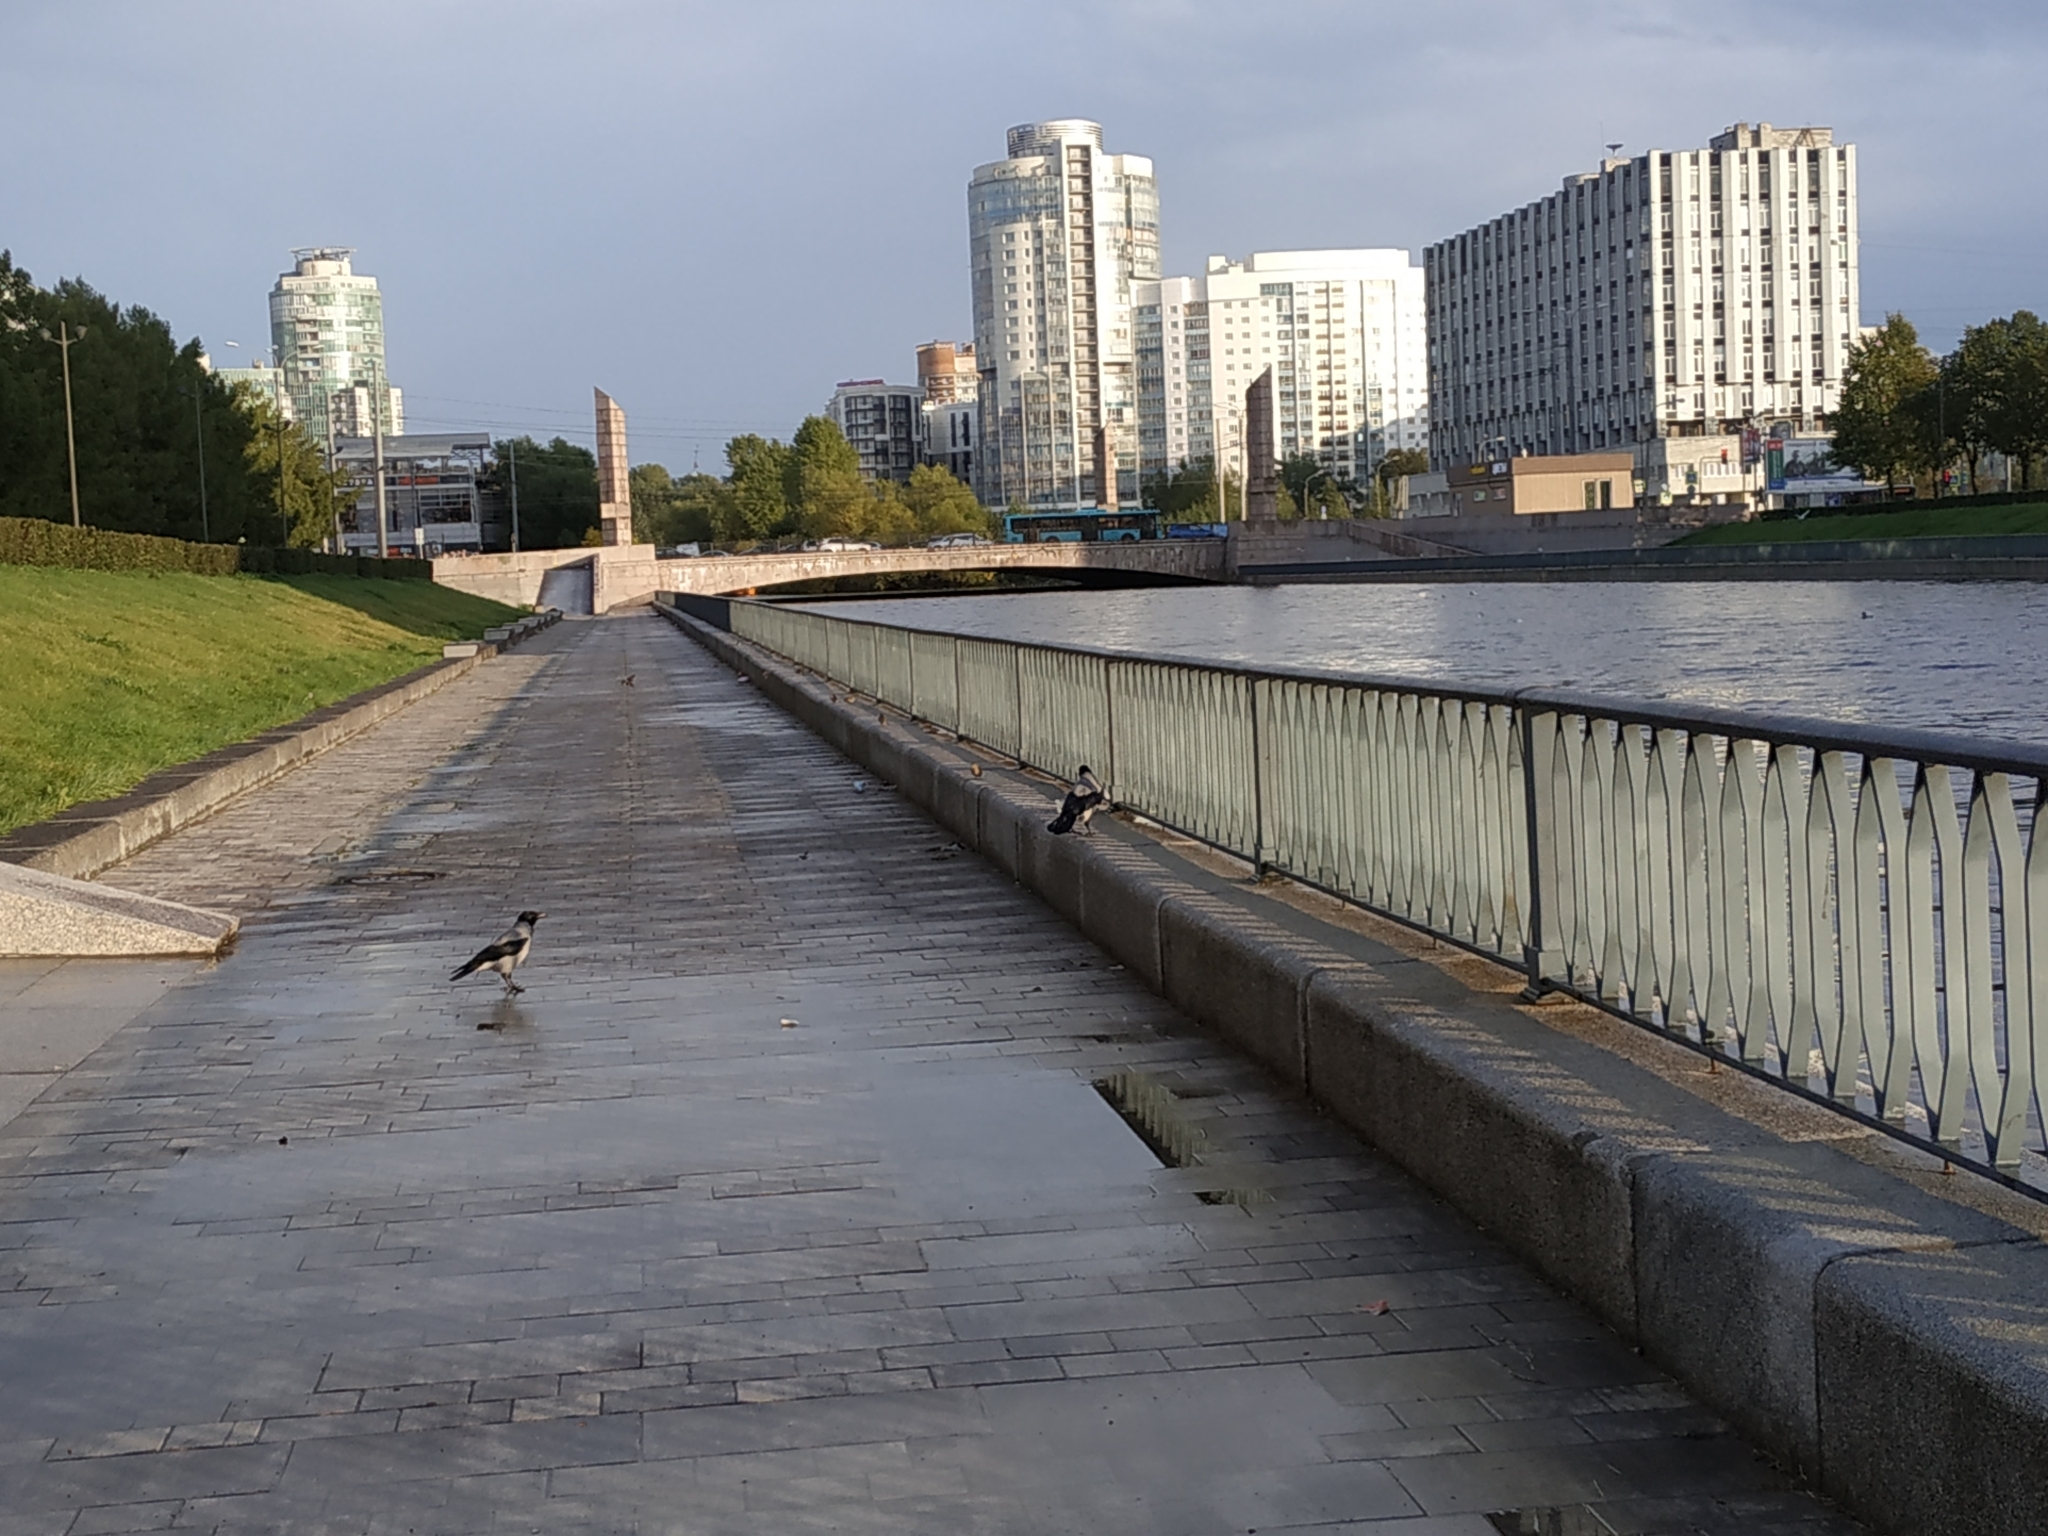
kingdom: Animalia
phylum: Chordata
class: Aves
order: Passeriformes
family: Corvidae
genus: Corvus
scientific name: Corvus cornix
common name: Hooded crow
